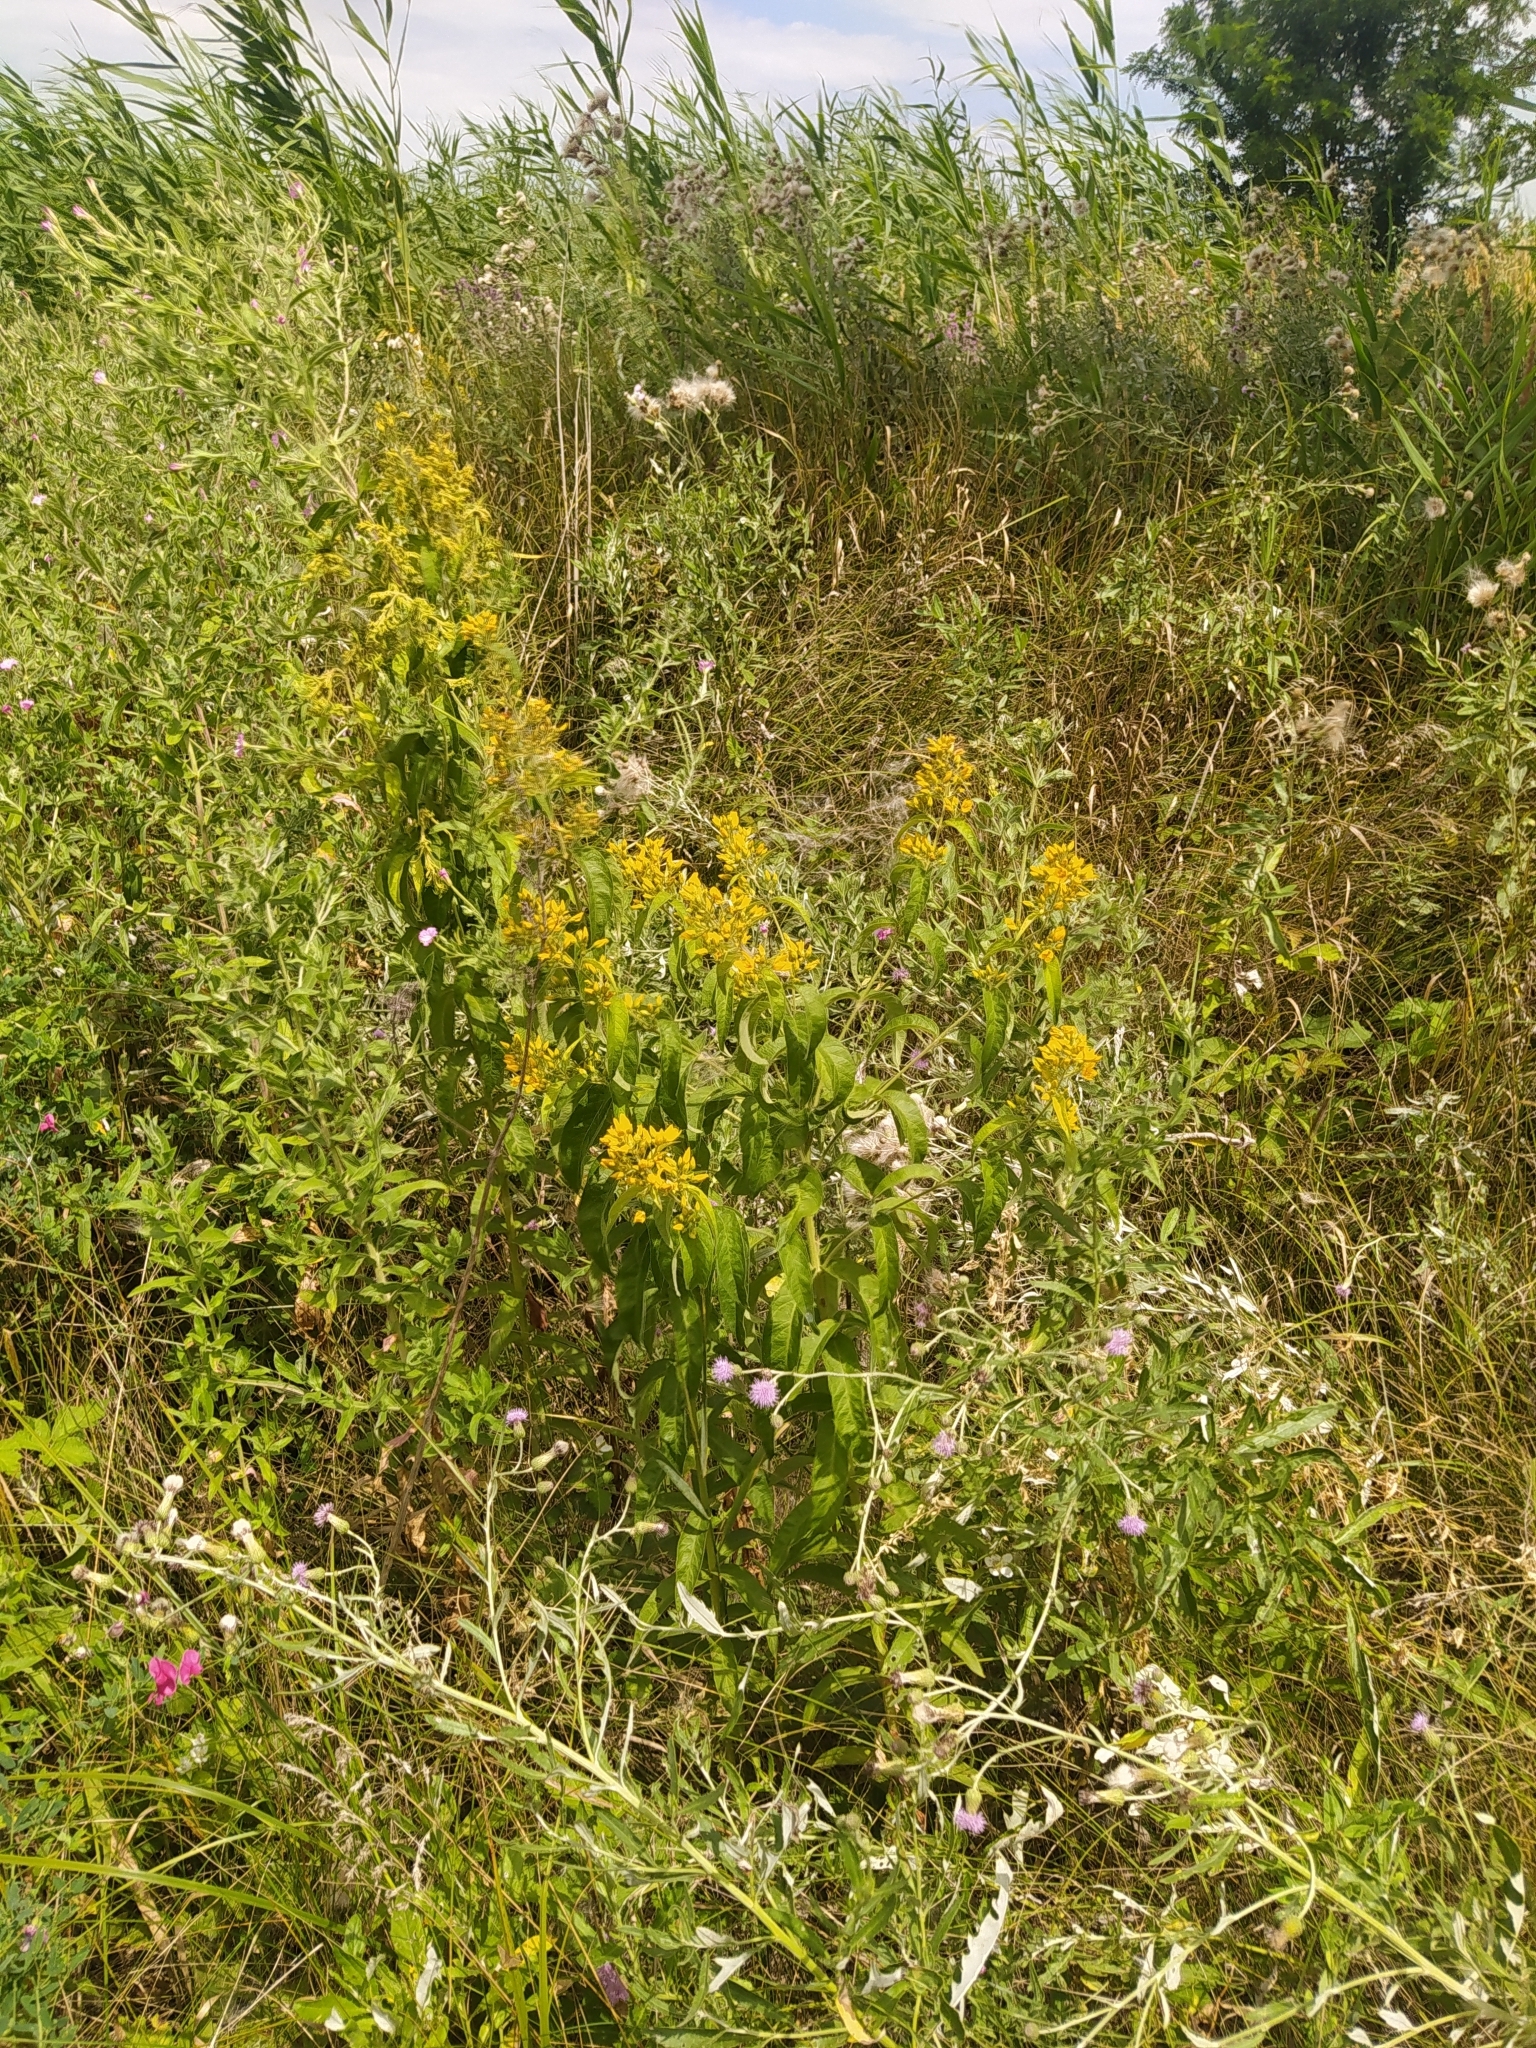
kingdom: Plantae
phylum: Tracheophyta
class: Magnoliopsida
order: Ericales
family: Primulaceae
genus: Lysimachia
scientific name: Lysimachia vulgaris
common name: Yellow loosestrife
